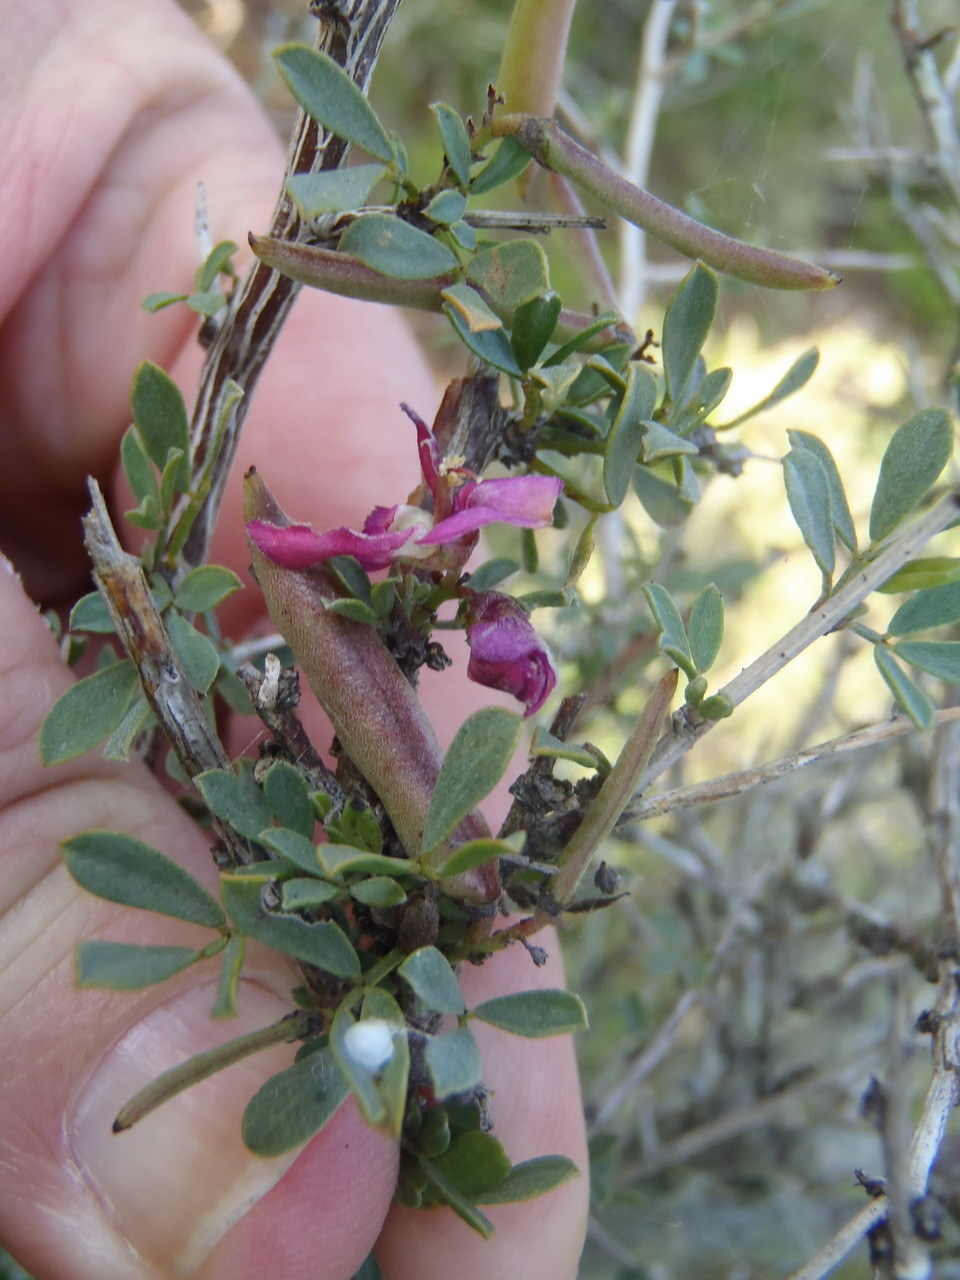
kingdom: Plantae
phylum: Tracheophyta
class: Magnoliopsida
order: Fabales
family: Fabaceae
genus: Indigofera
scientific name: Indigofera nigromontana
